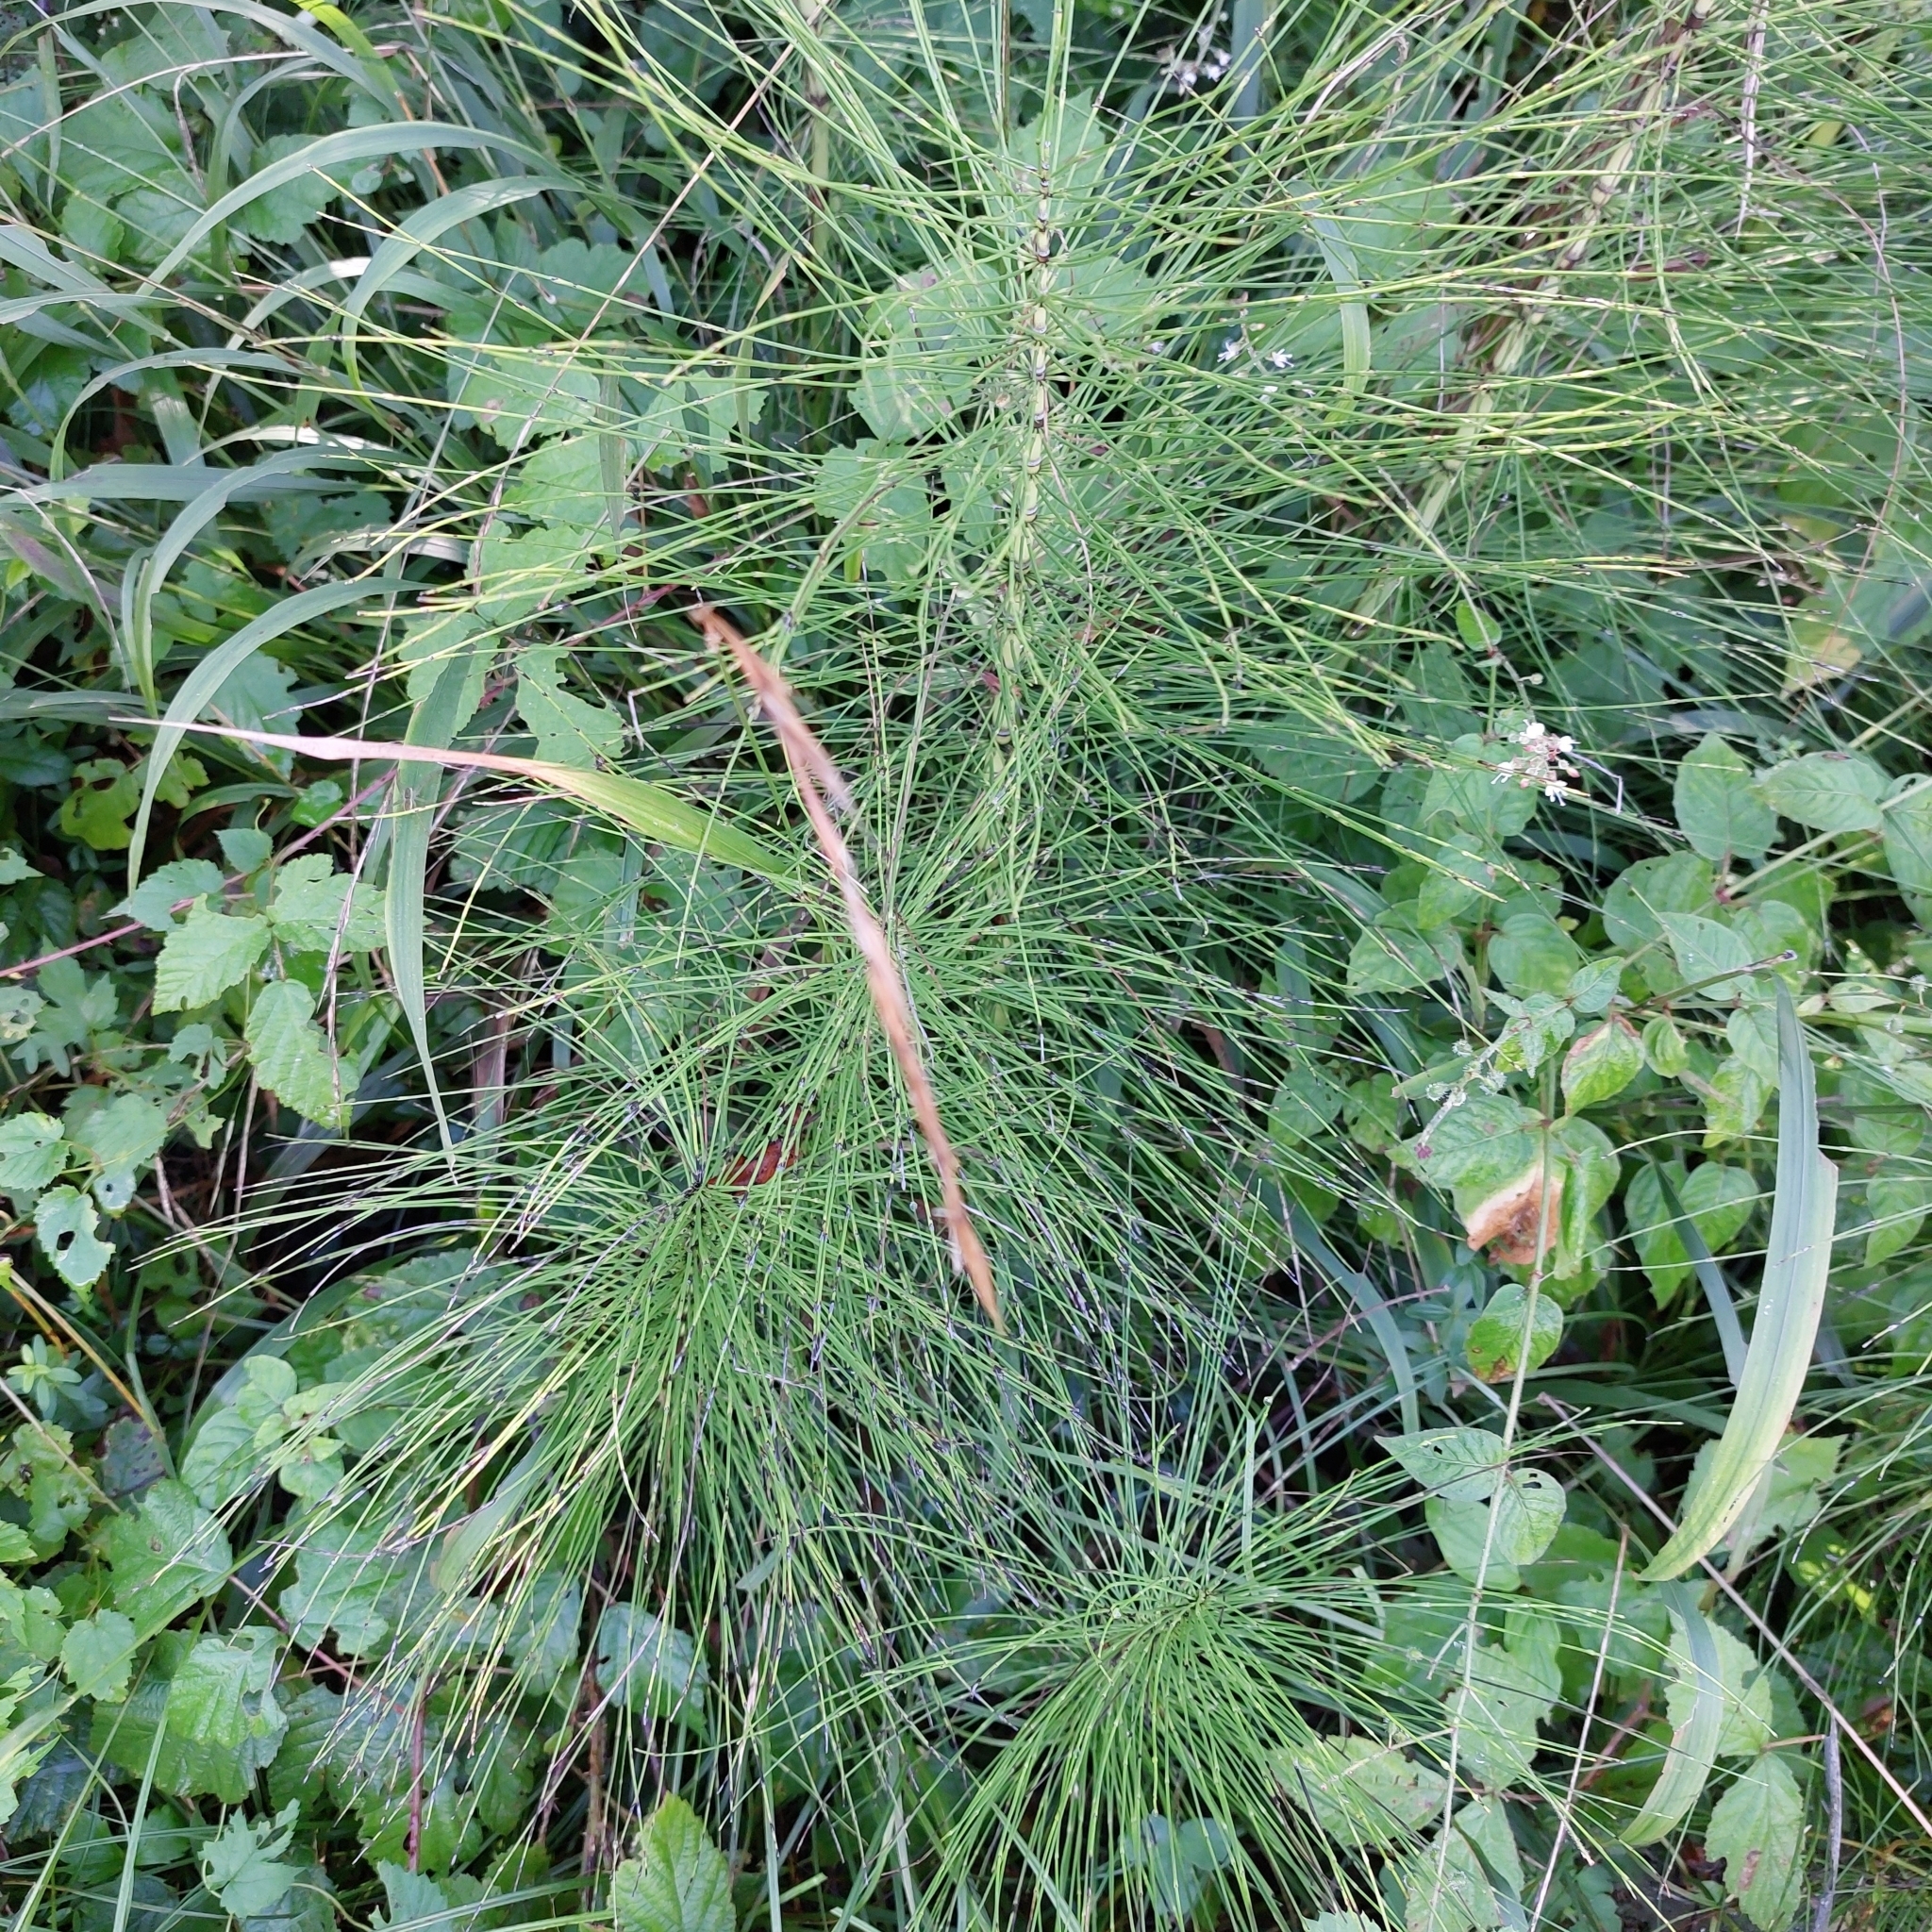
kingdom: Plantae
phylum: Tracheophyta
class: Polypodiopsida
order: Equisetales
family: Equisetaceae
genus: Equisetum
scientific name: Equisetum telmateia
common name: Great horsetail
